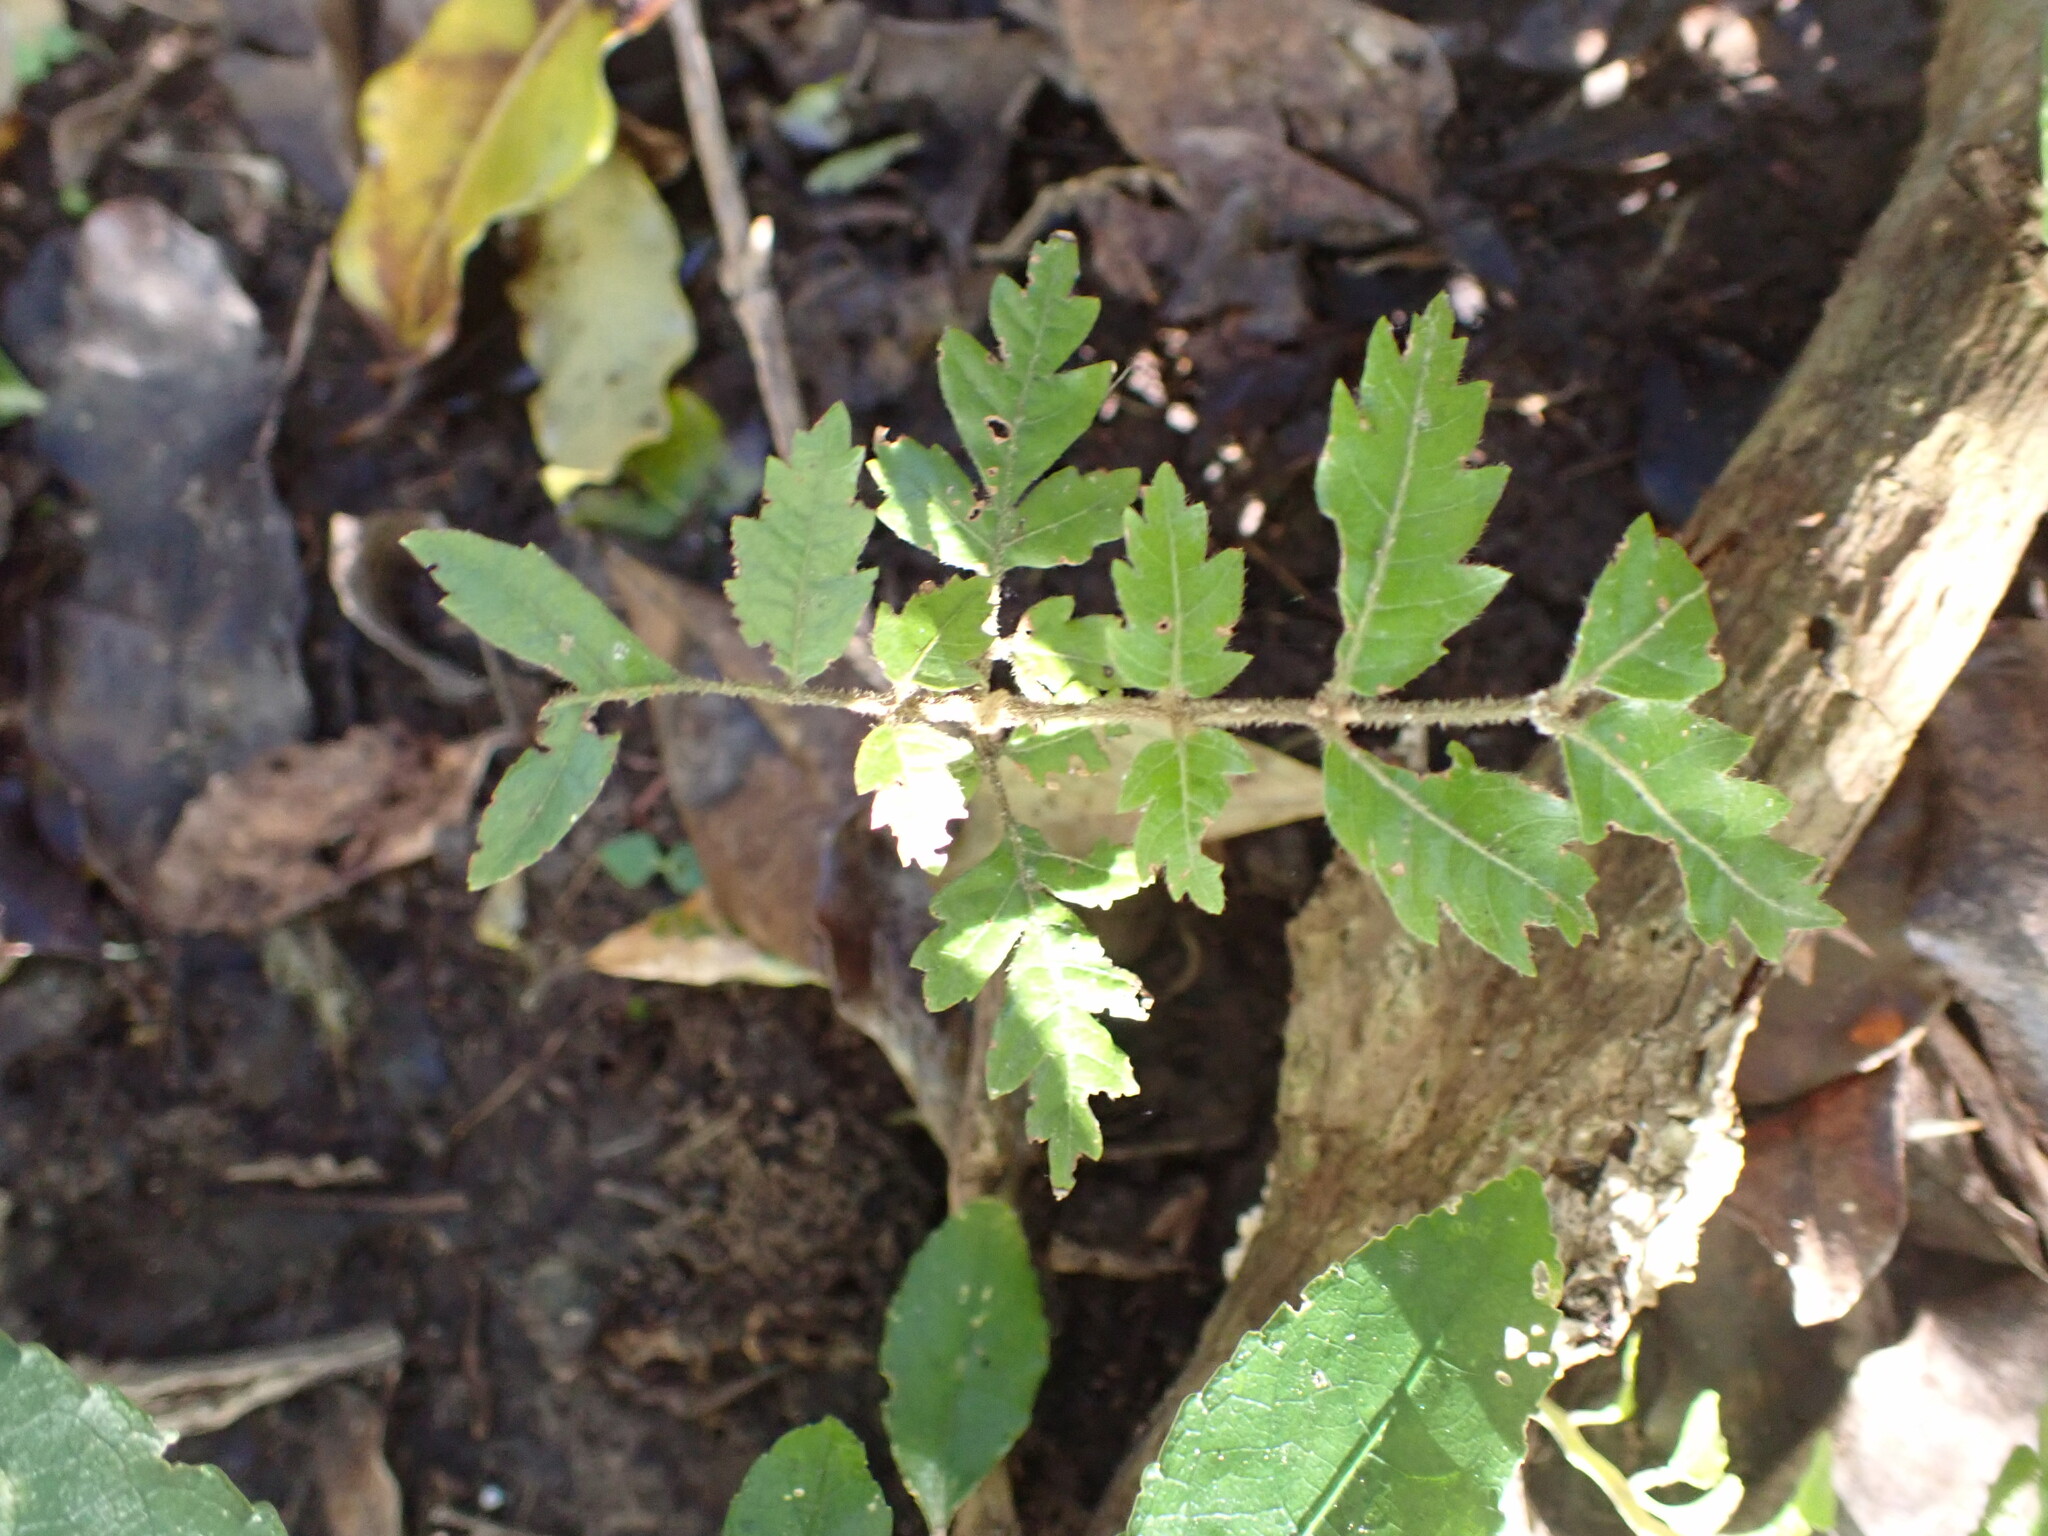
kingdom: Plantae
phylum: Tracheophyta
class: Magnoliopsida
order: Sapindales
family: Sapindaceae
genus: Alectryon
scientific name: Alectryon excelsus
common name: Three kings titoki
